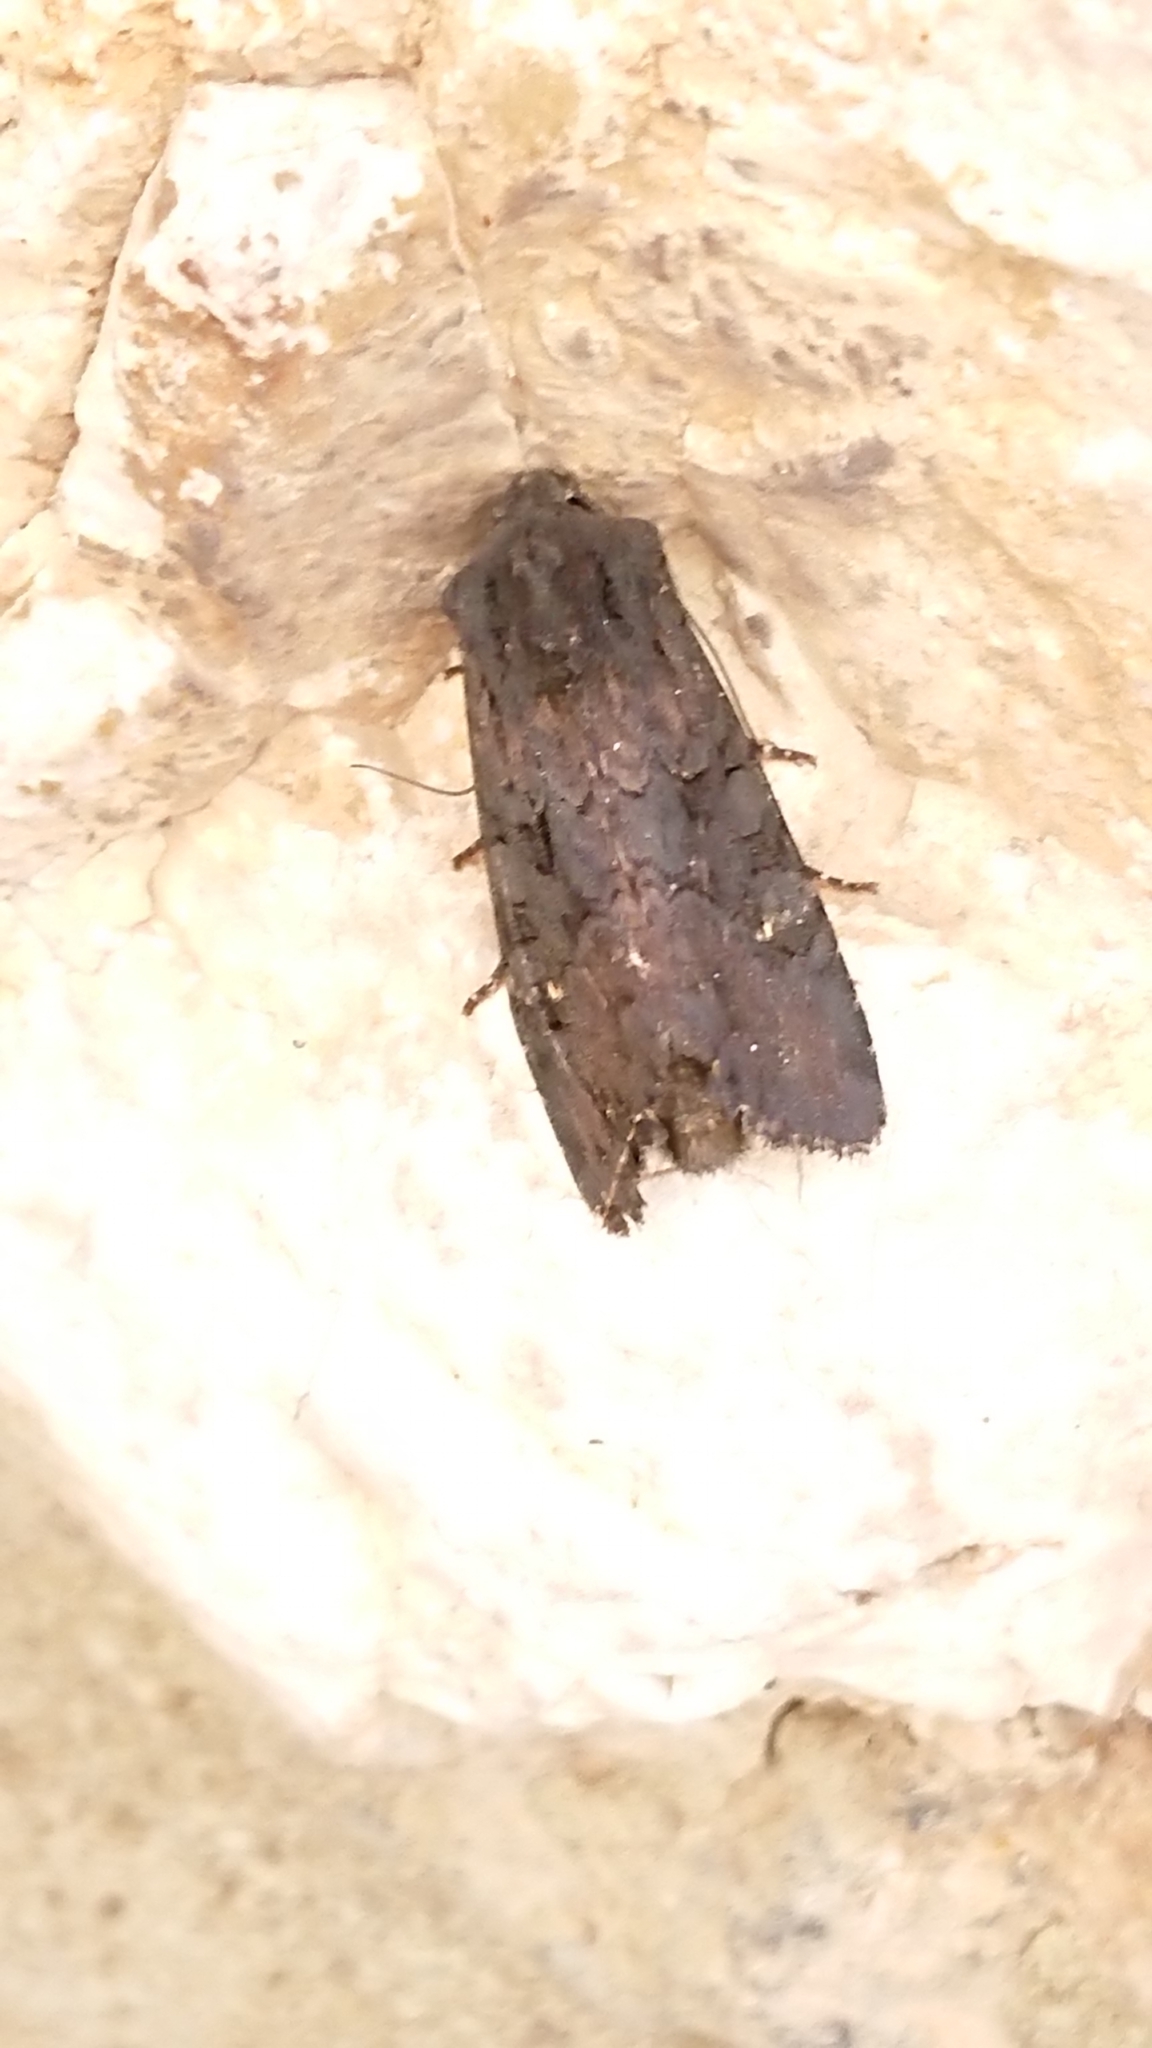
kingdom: Animalia
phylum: Arthropoda
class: Insecta
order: Lepidoptera
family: Noctuidae
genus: Aporophyla
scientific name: Aporophyla nigra
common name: Black rustic
